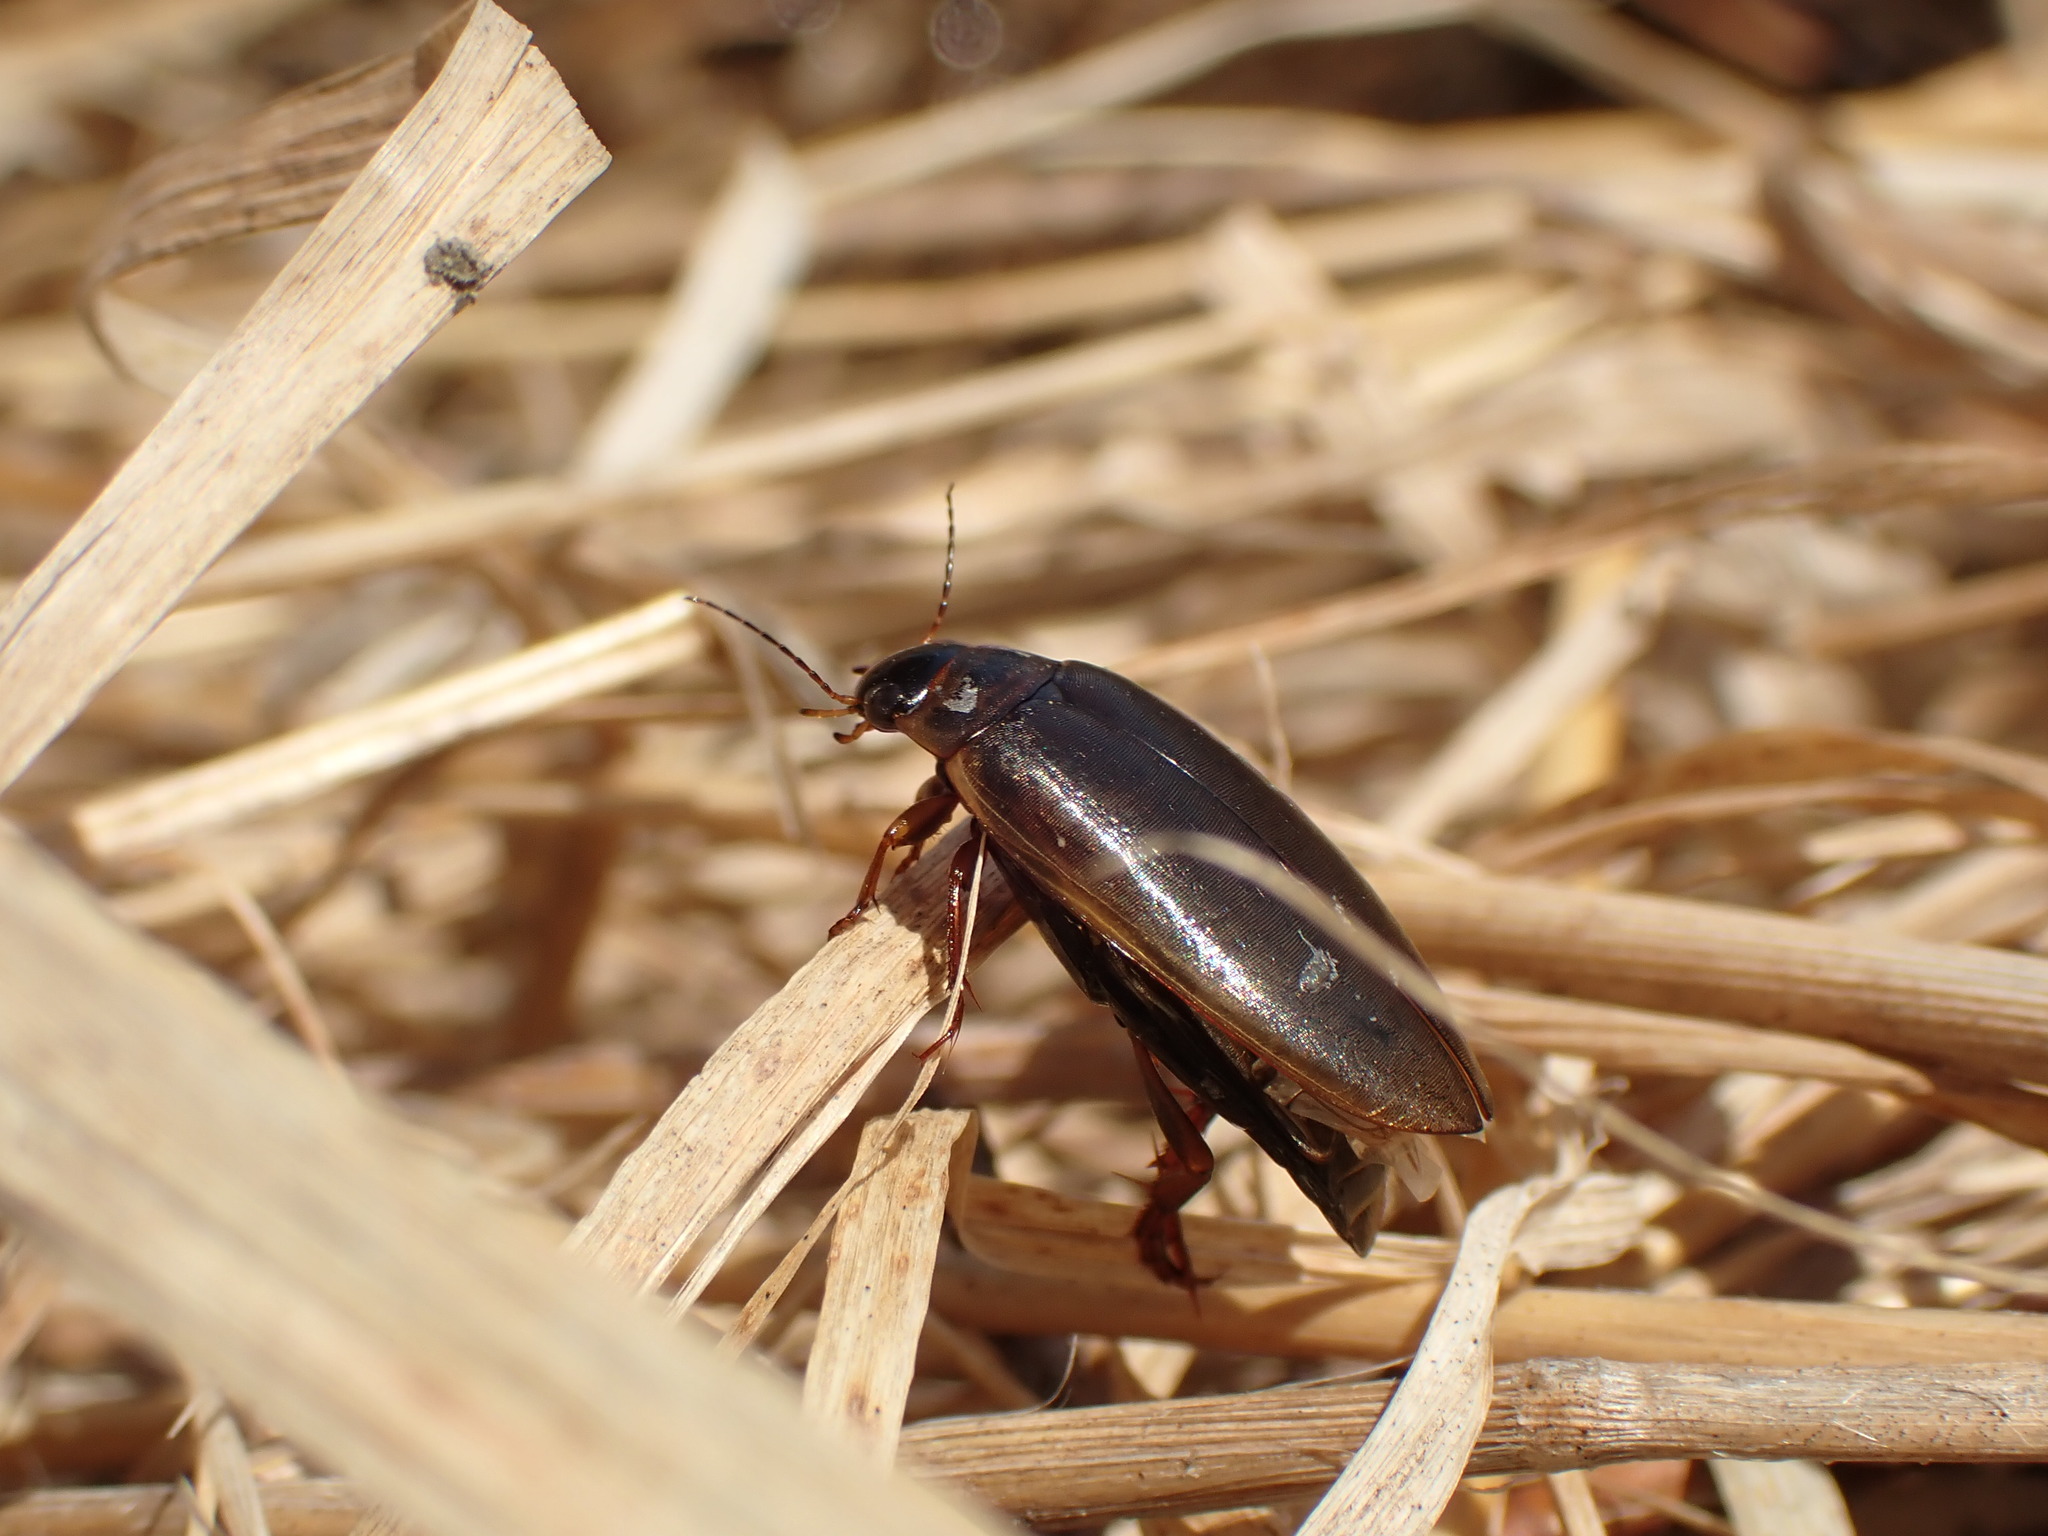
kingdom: Animalia
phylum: Arthropoda
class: Insecta
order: Coleoptera
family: Dytiscidae
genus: Colymbetes
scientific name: Colymbetes
